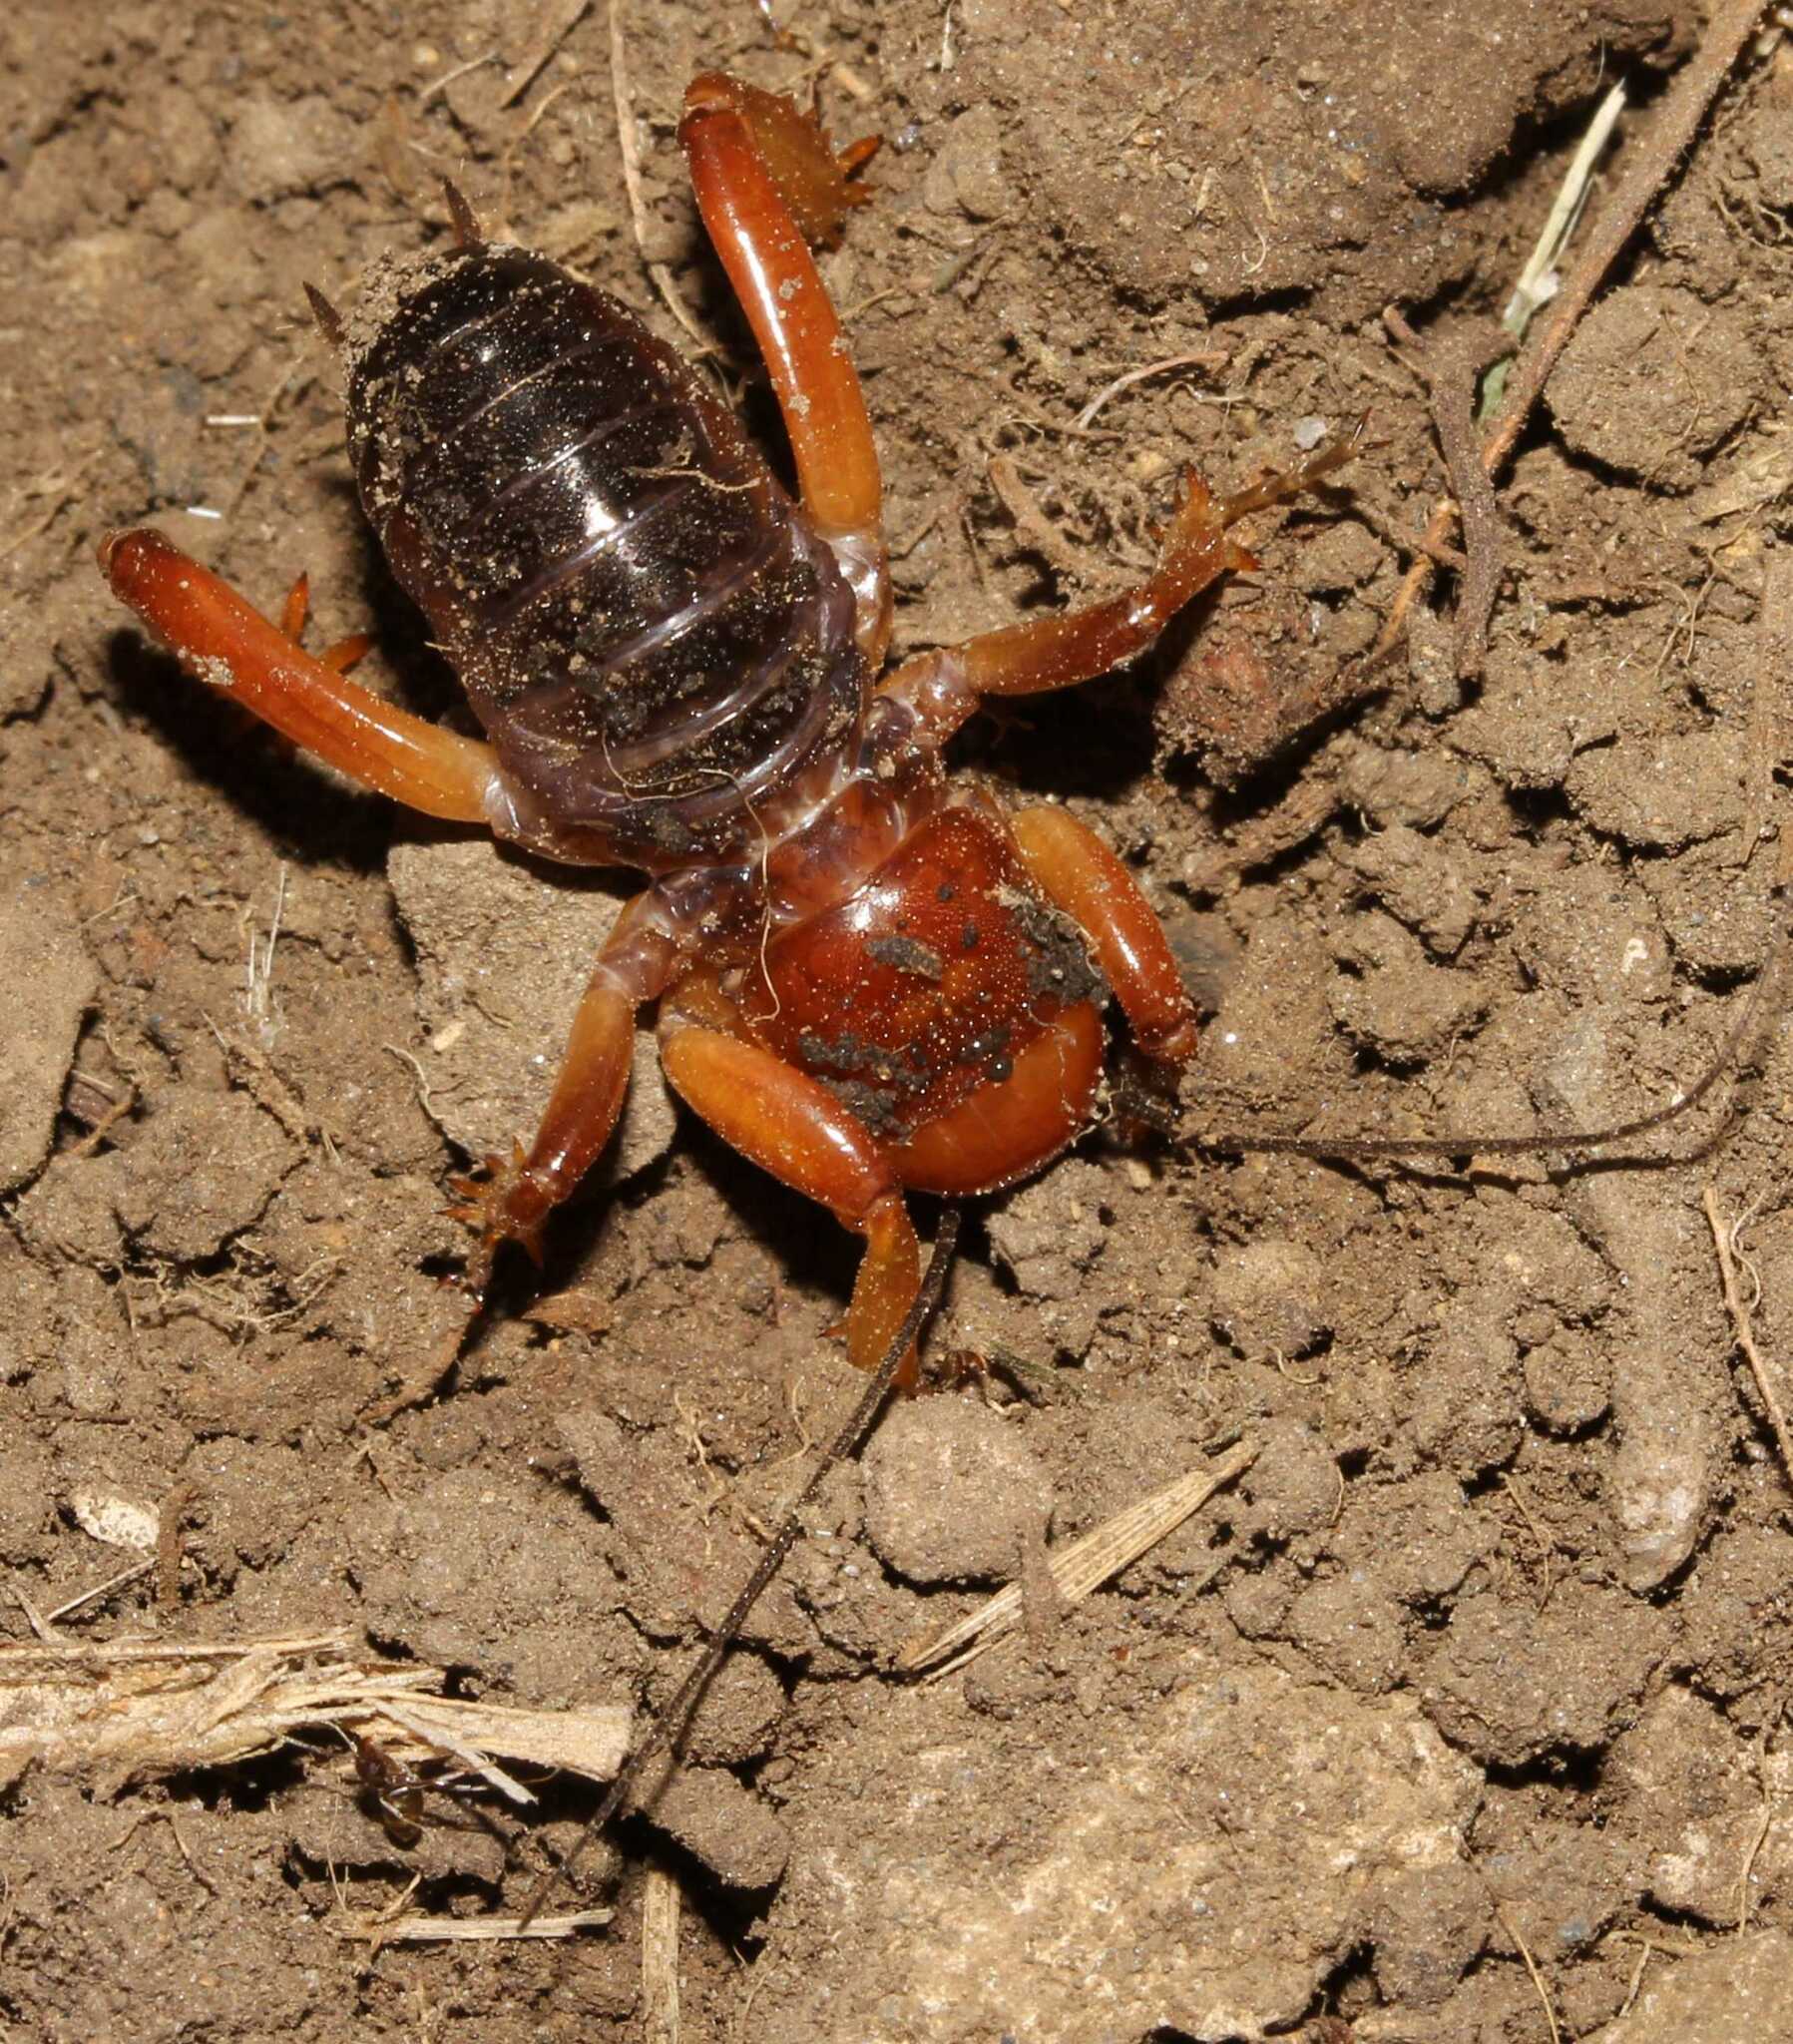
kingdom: Animalia
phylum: Arthropoda
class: Insecta
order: Orthoptera
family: Stenopelmatidae
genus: Stenopelmatus
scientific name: Stenopelmatus talpa
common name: Mole jerusalem cricket
